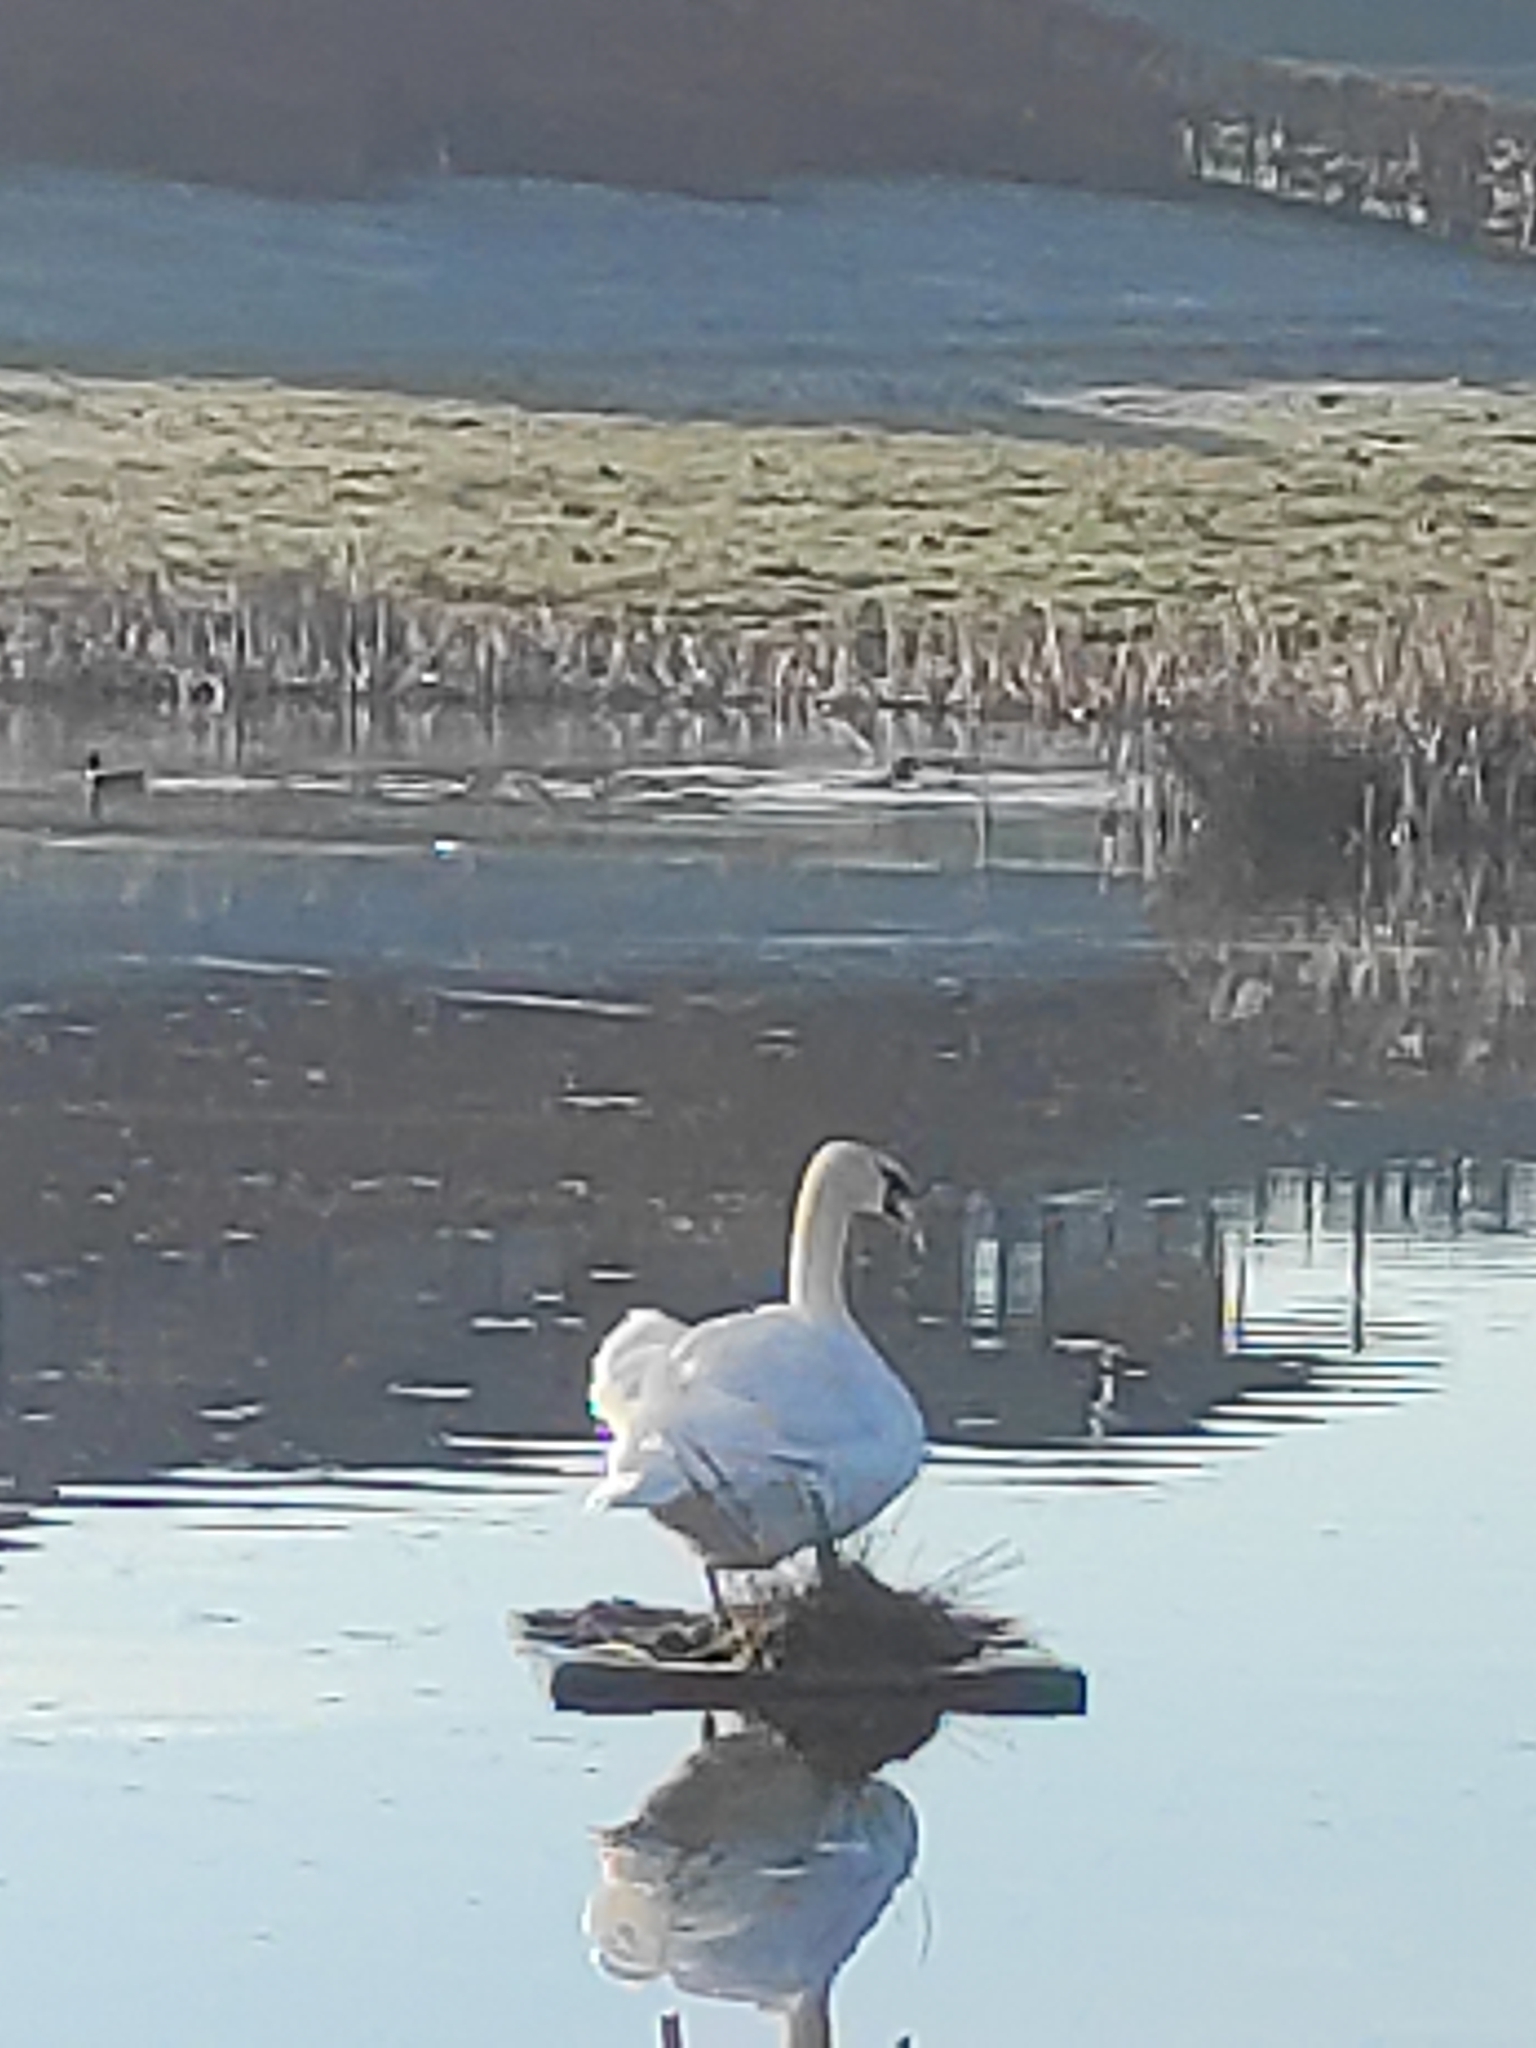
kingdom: Animalia
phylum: Chordata
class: Aves
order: Anseriformes
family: Anatidae
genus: Cygnus
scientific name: Cygnus olor
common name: Mute swan
